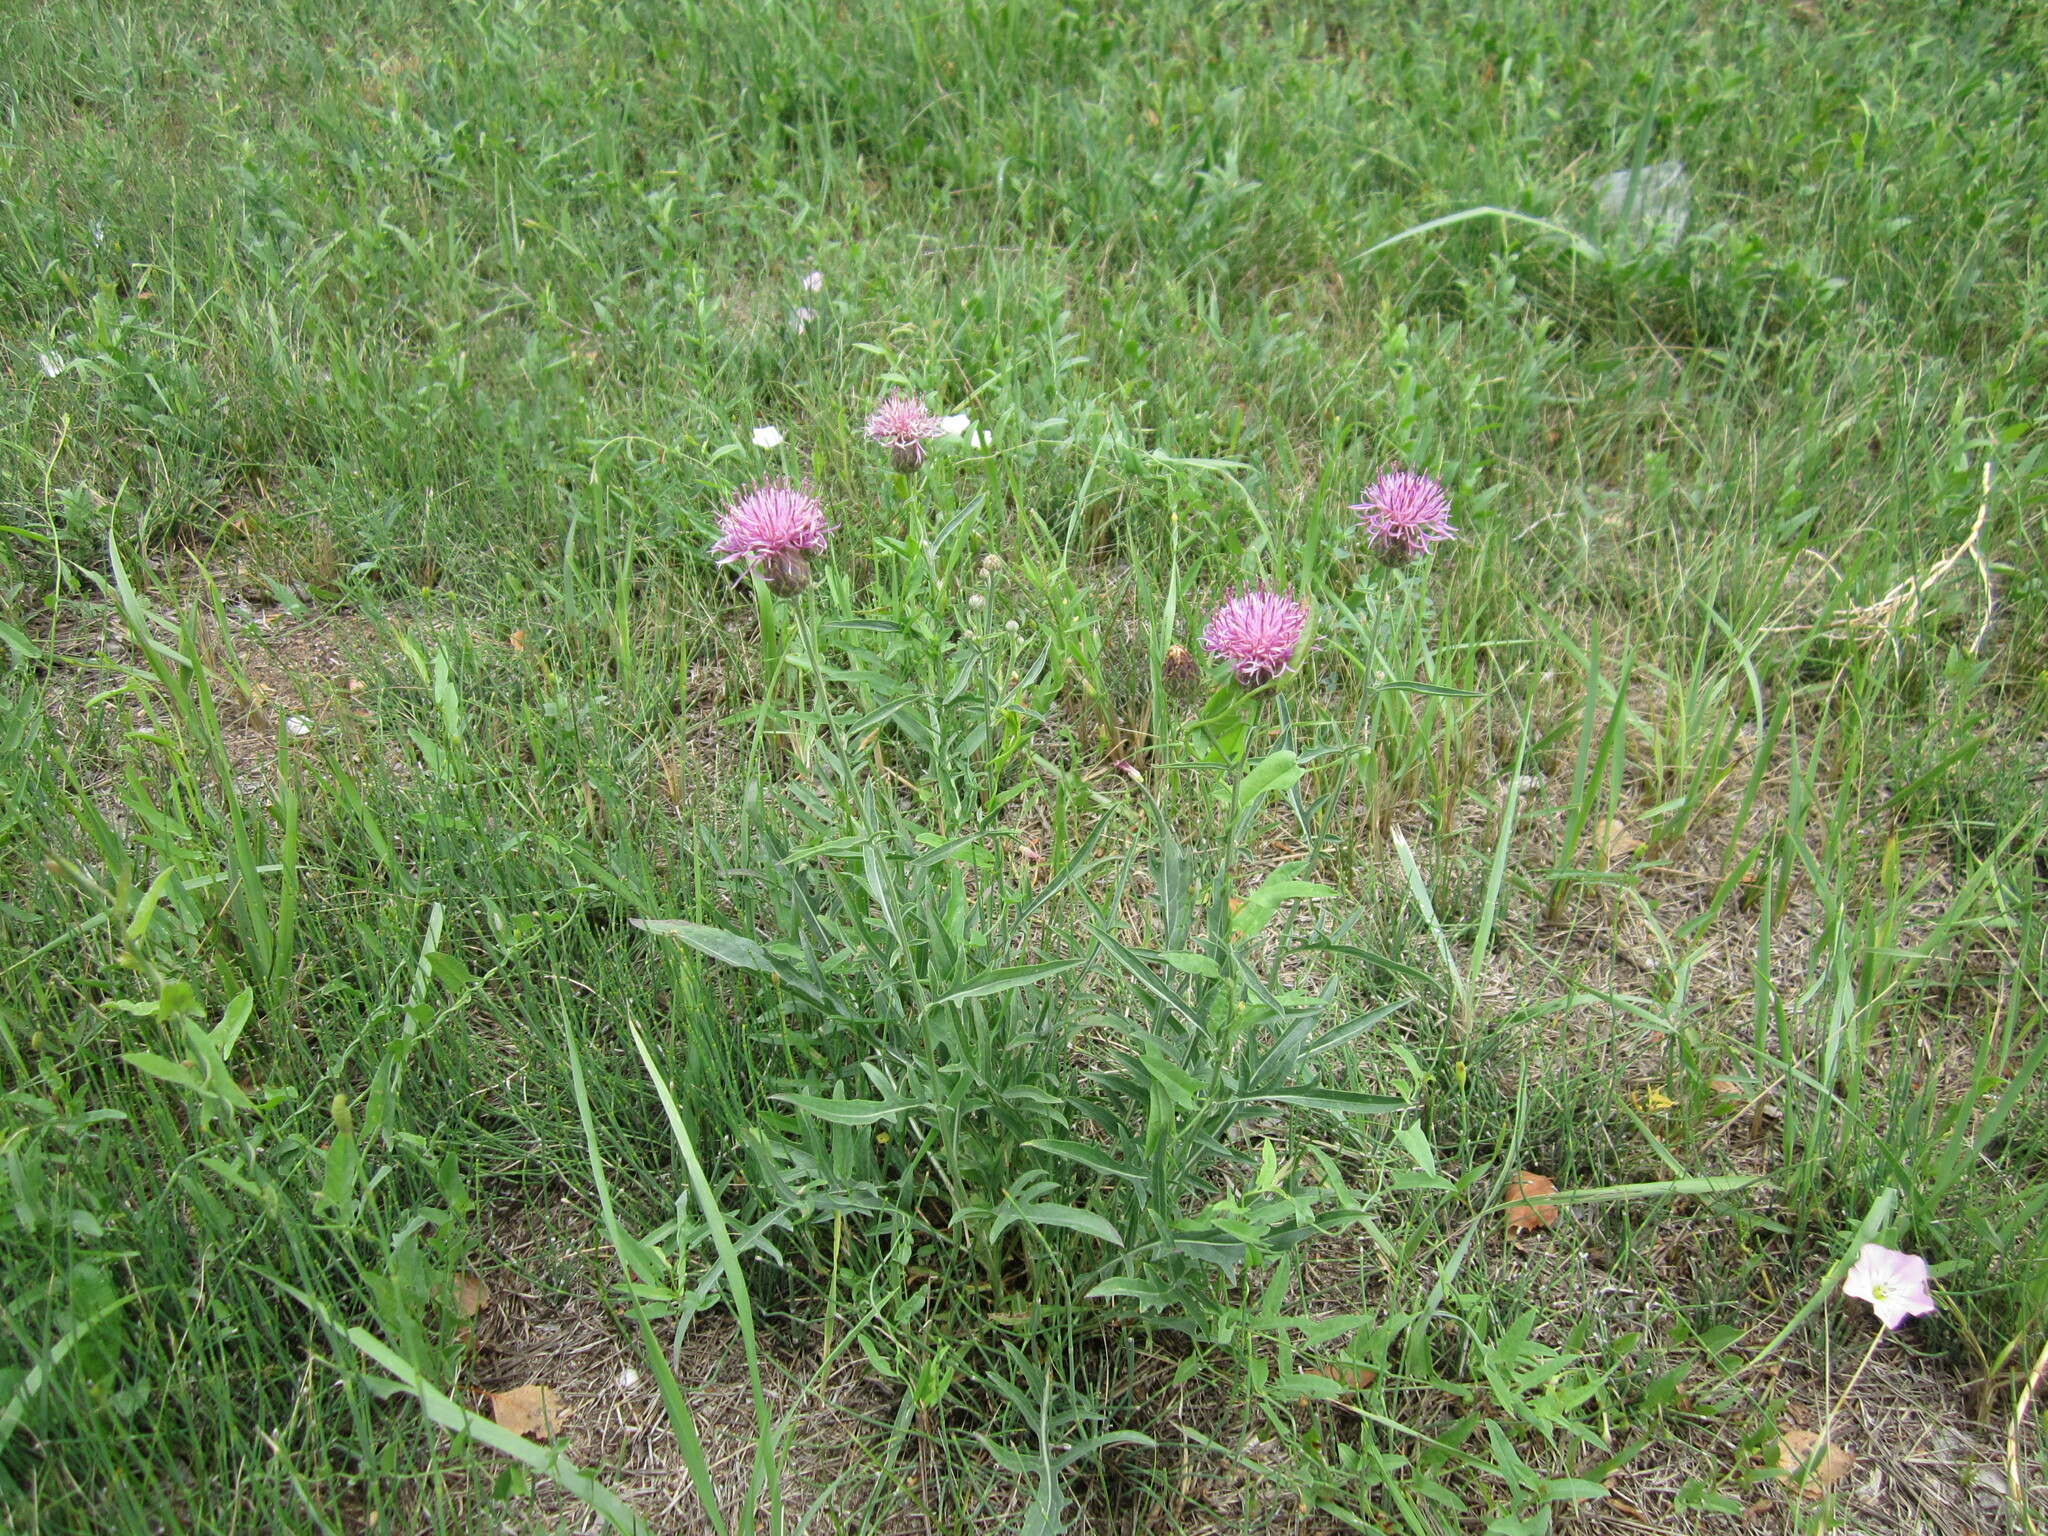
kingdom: Plantae
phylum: Tracheophyta
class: Magnoliopsida
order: Asterales
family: Asteraceae
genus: Centaurea
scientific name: Centaurea scabiosa
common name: Greater knapweed
